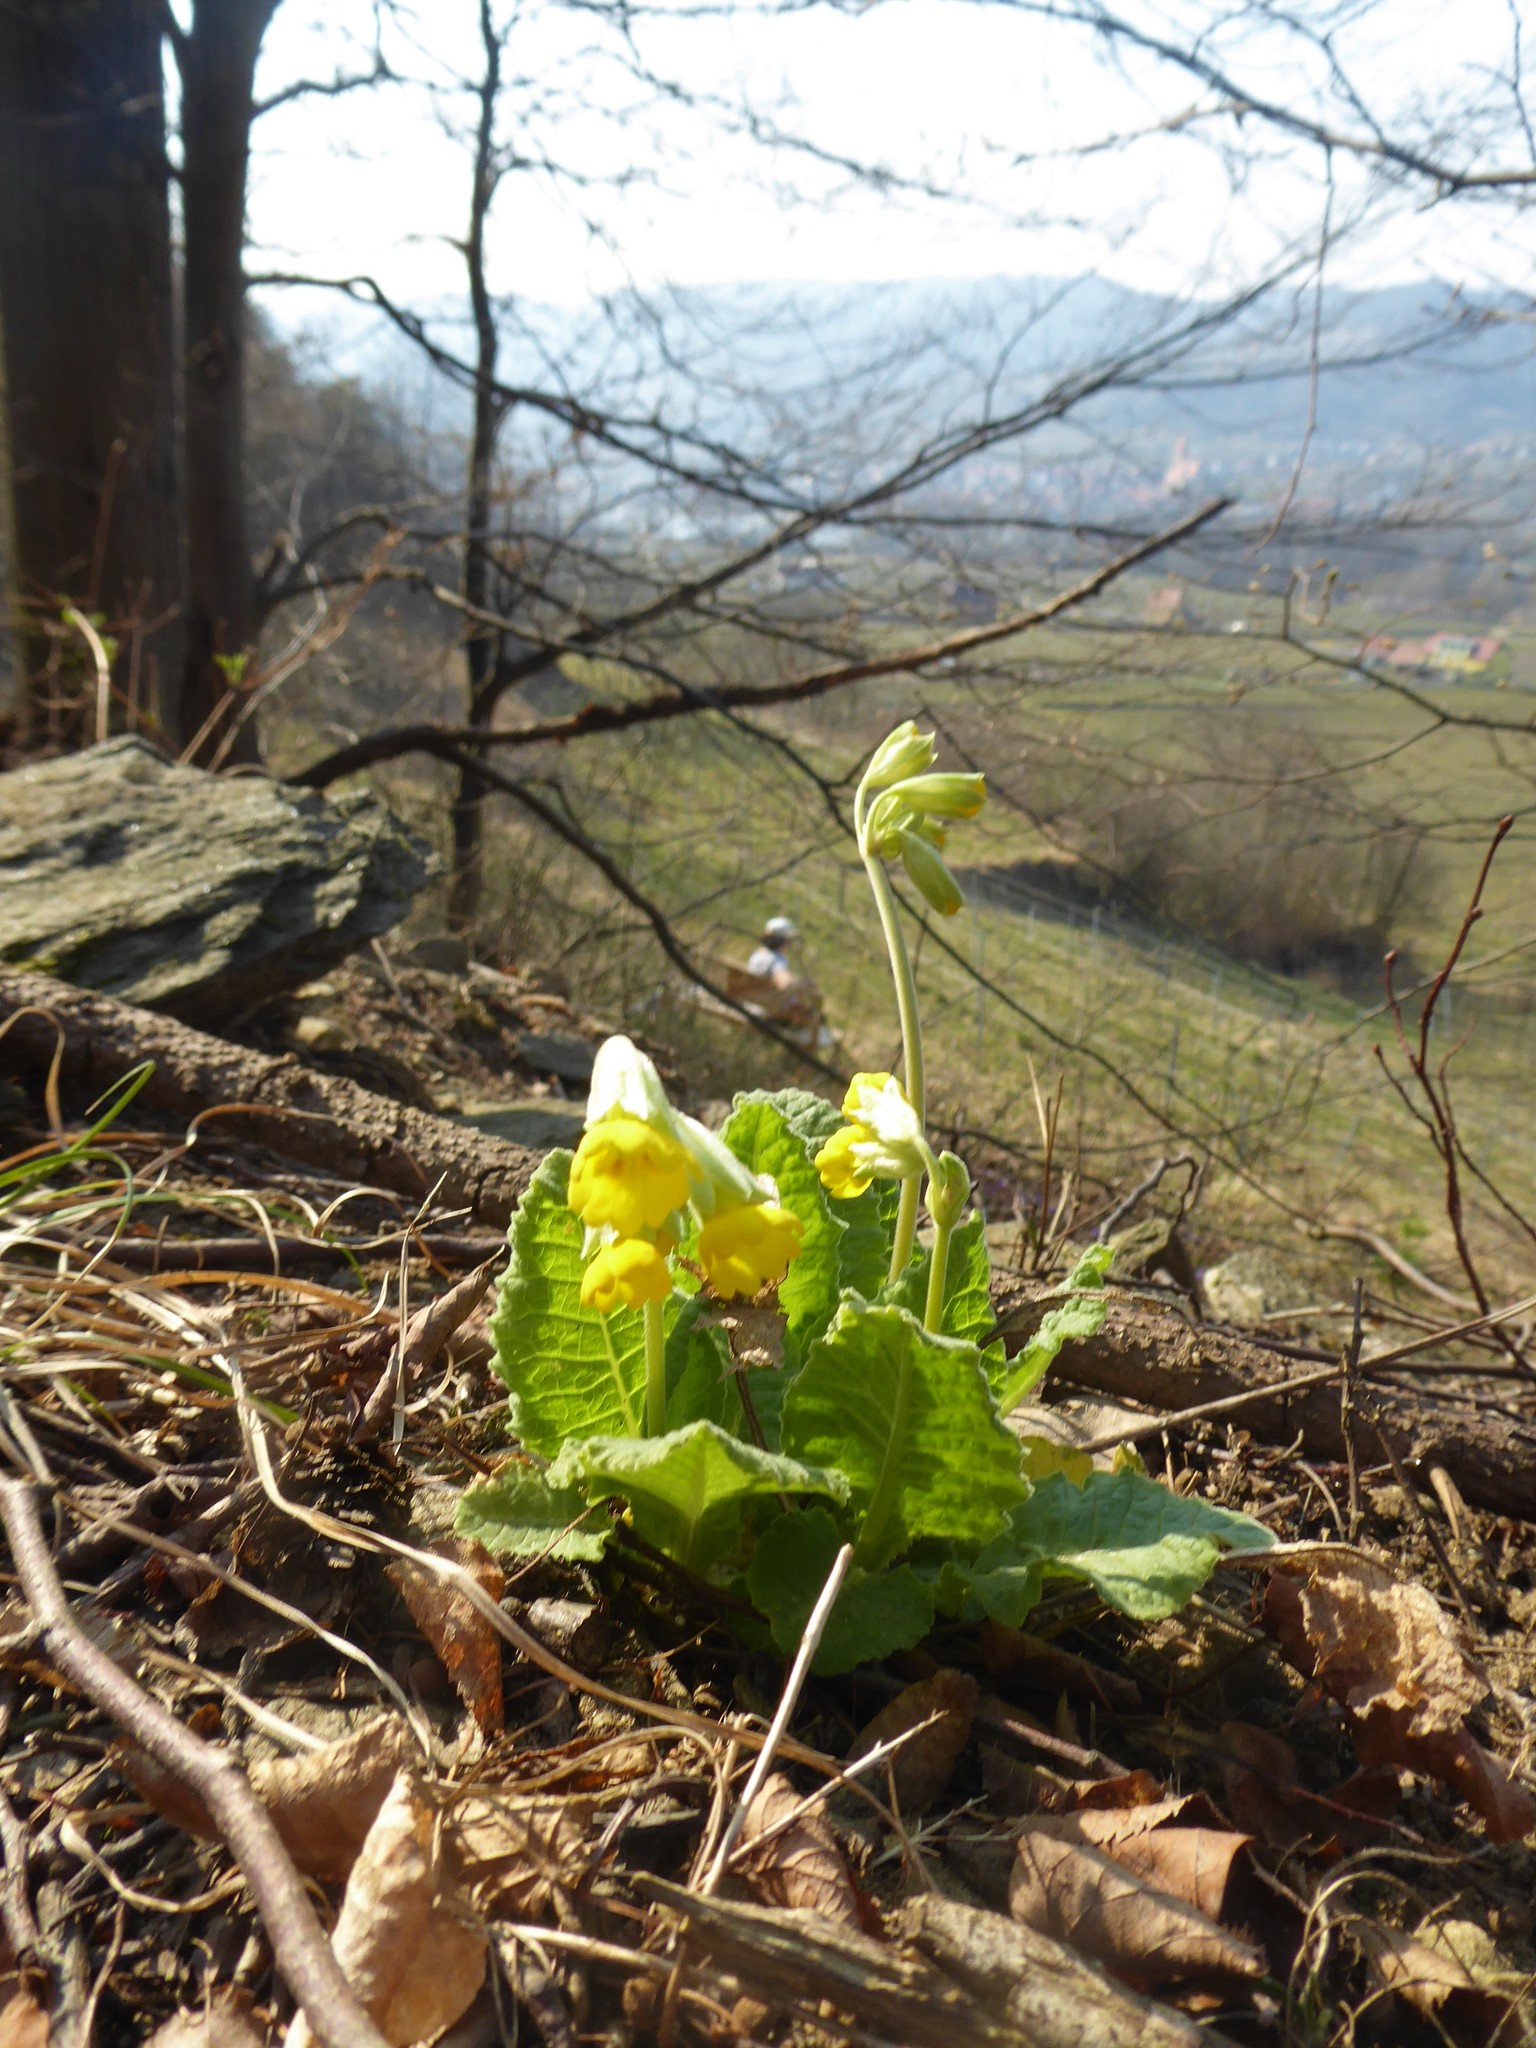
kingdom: Plantae
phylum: Tracheophyta
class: Magnoliopsida
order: Ericales
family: Primulaceae
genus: Primula
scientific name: Primula veris
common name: Cowslip
